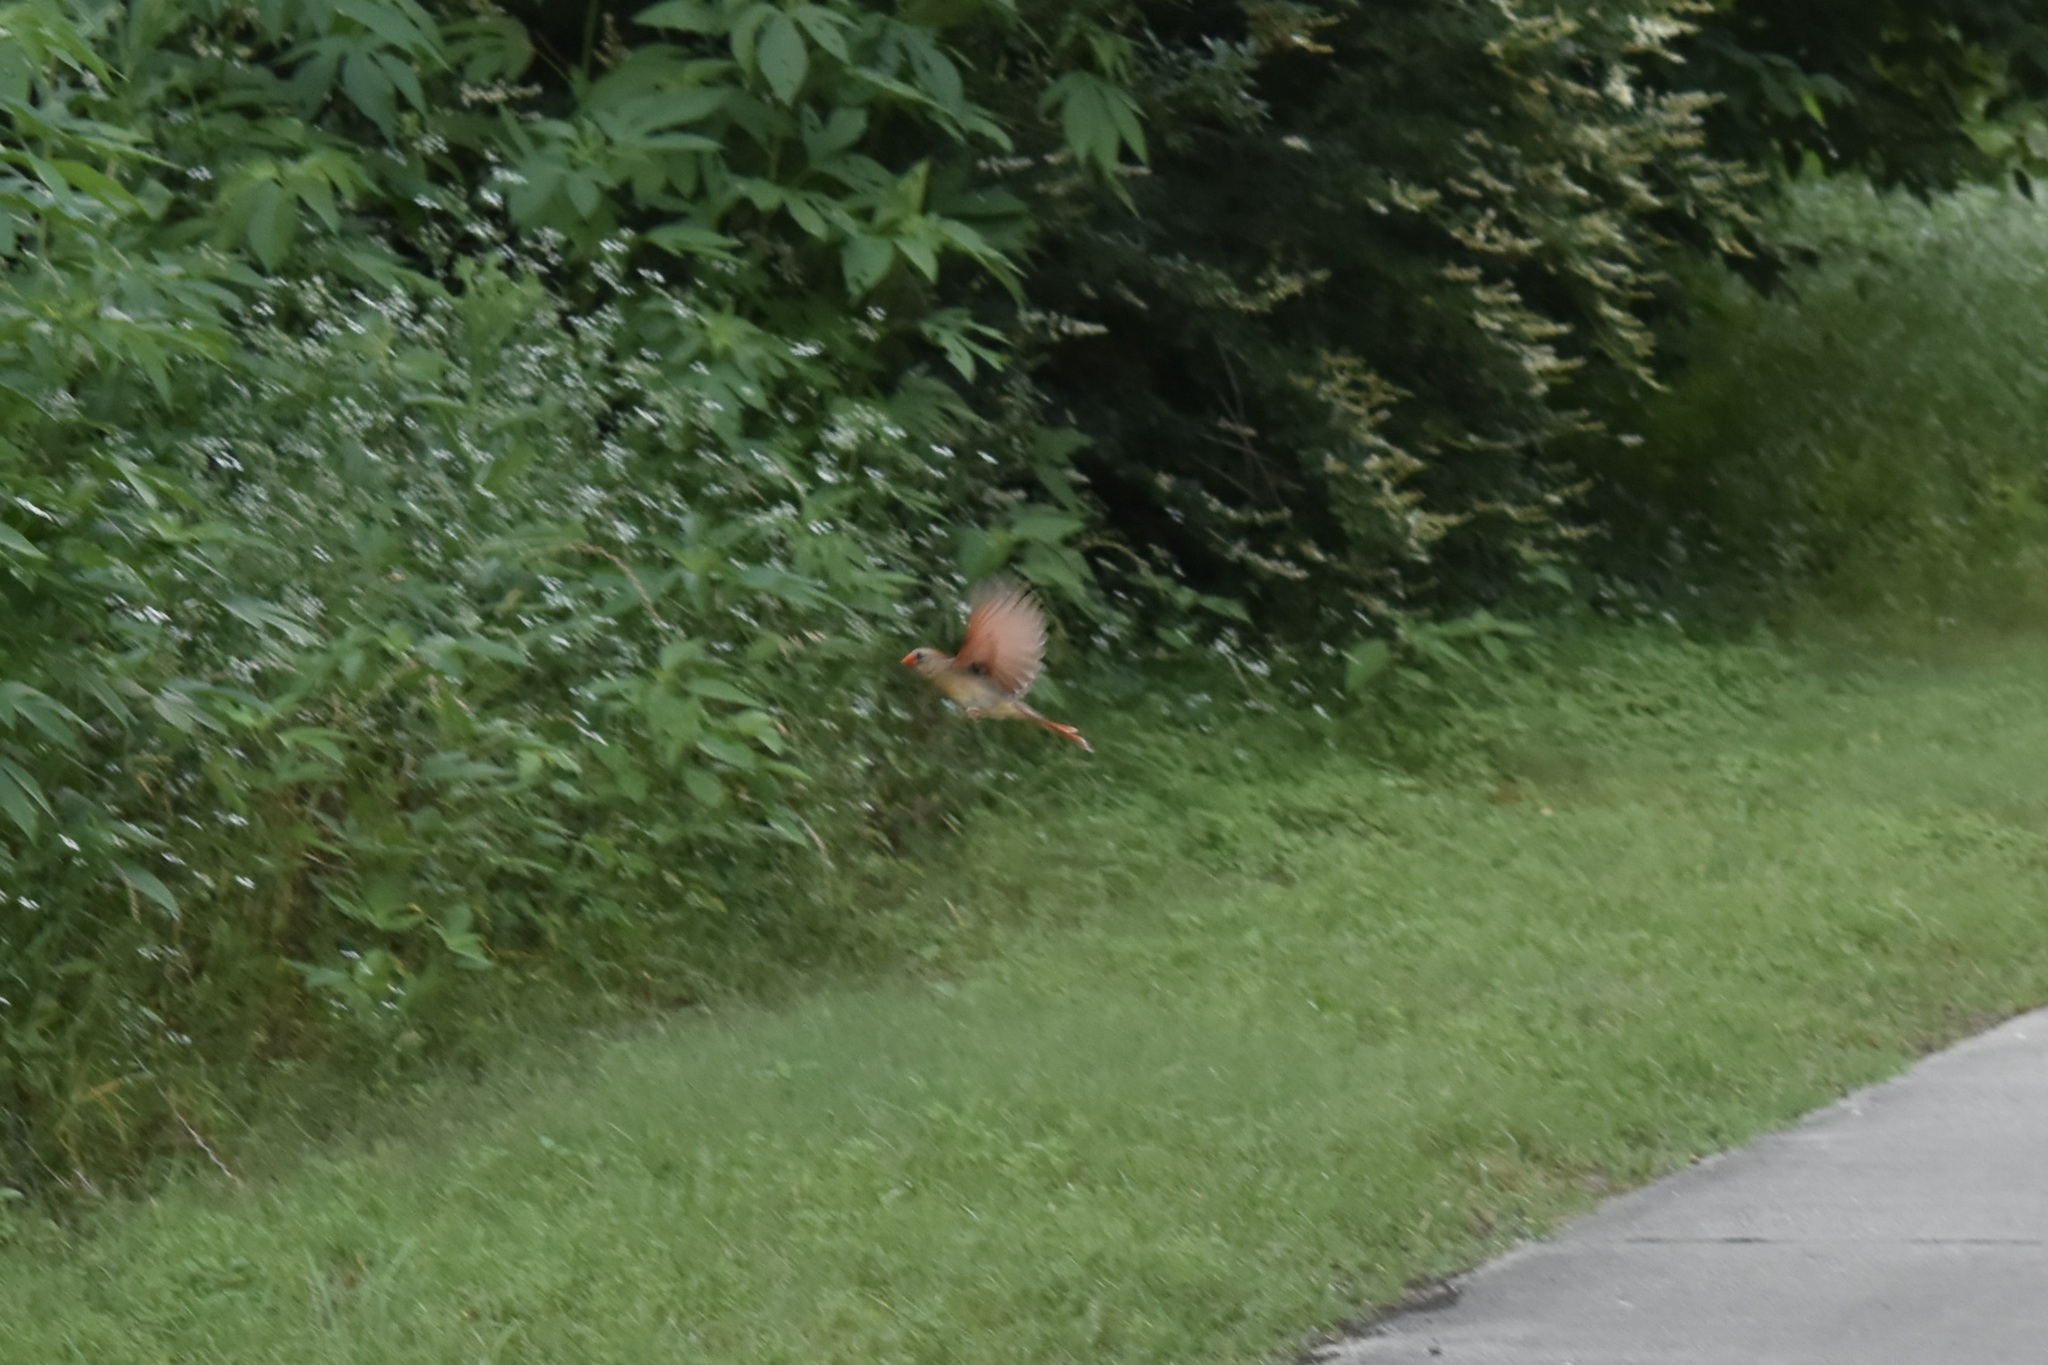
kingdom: Animalia
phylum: Chordata
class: Aves
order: Passeriformes
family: Cardinalidae
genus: Cardinalis
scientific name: Cardinalis cardinalis
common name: Northern cardinal
